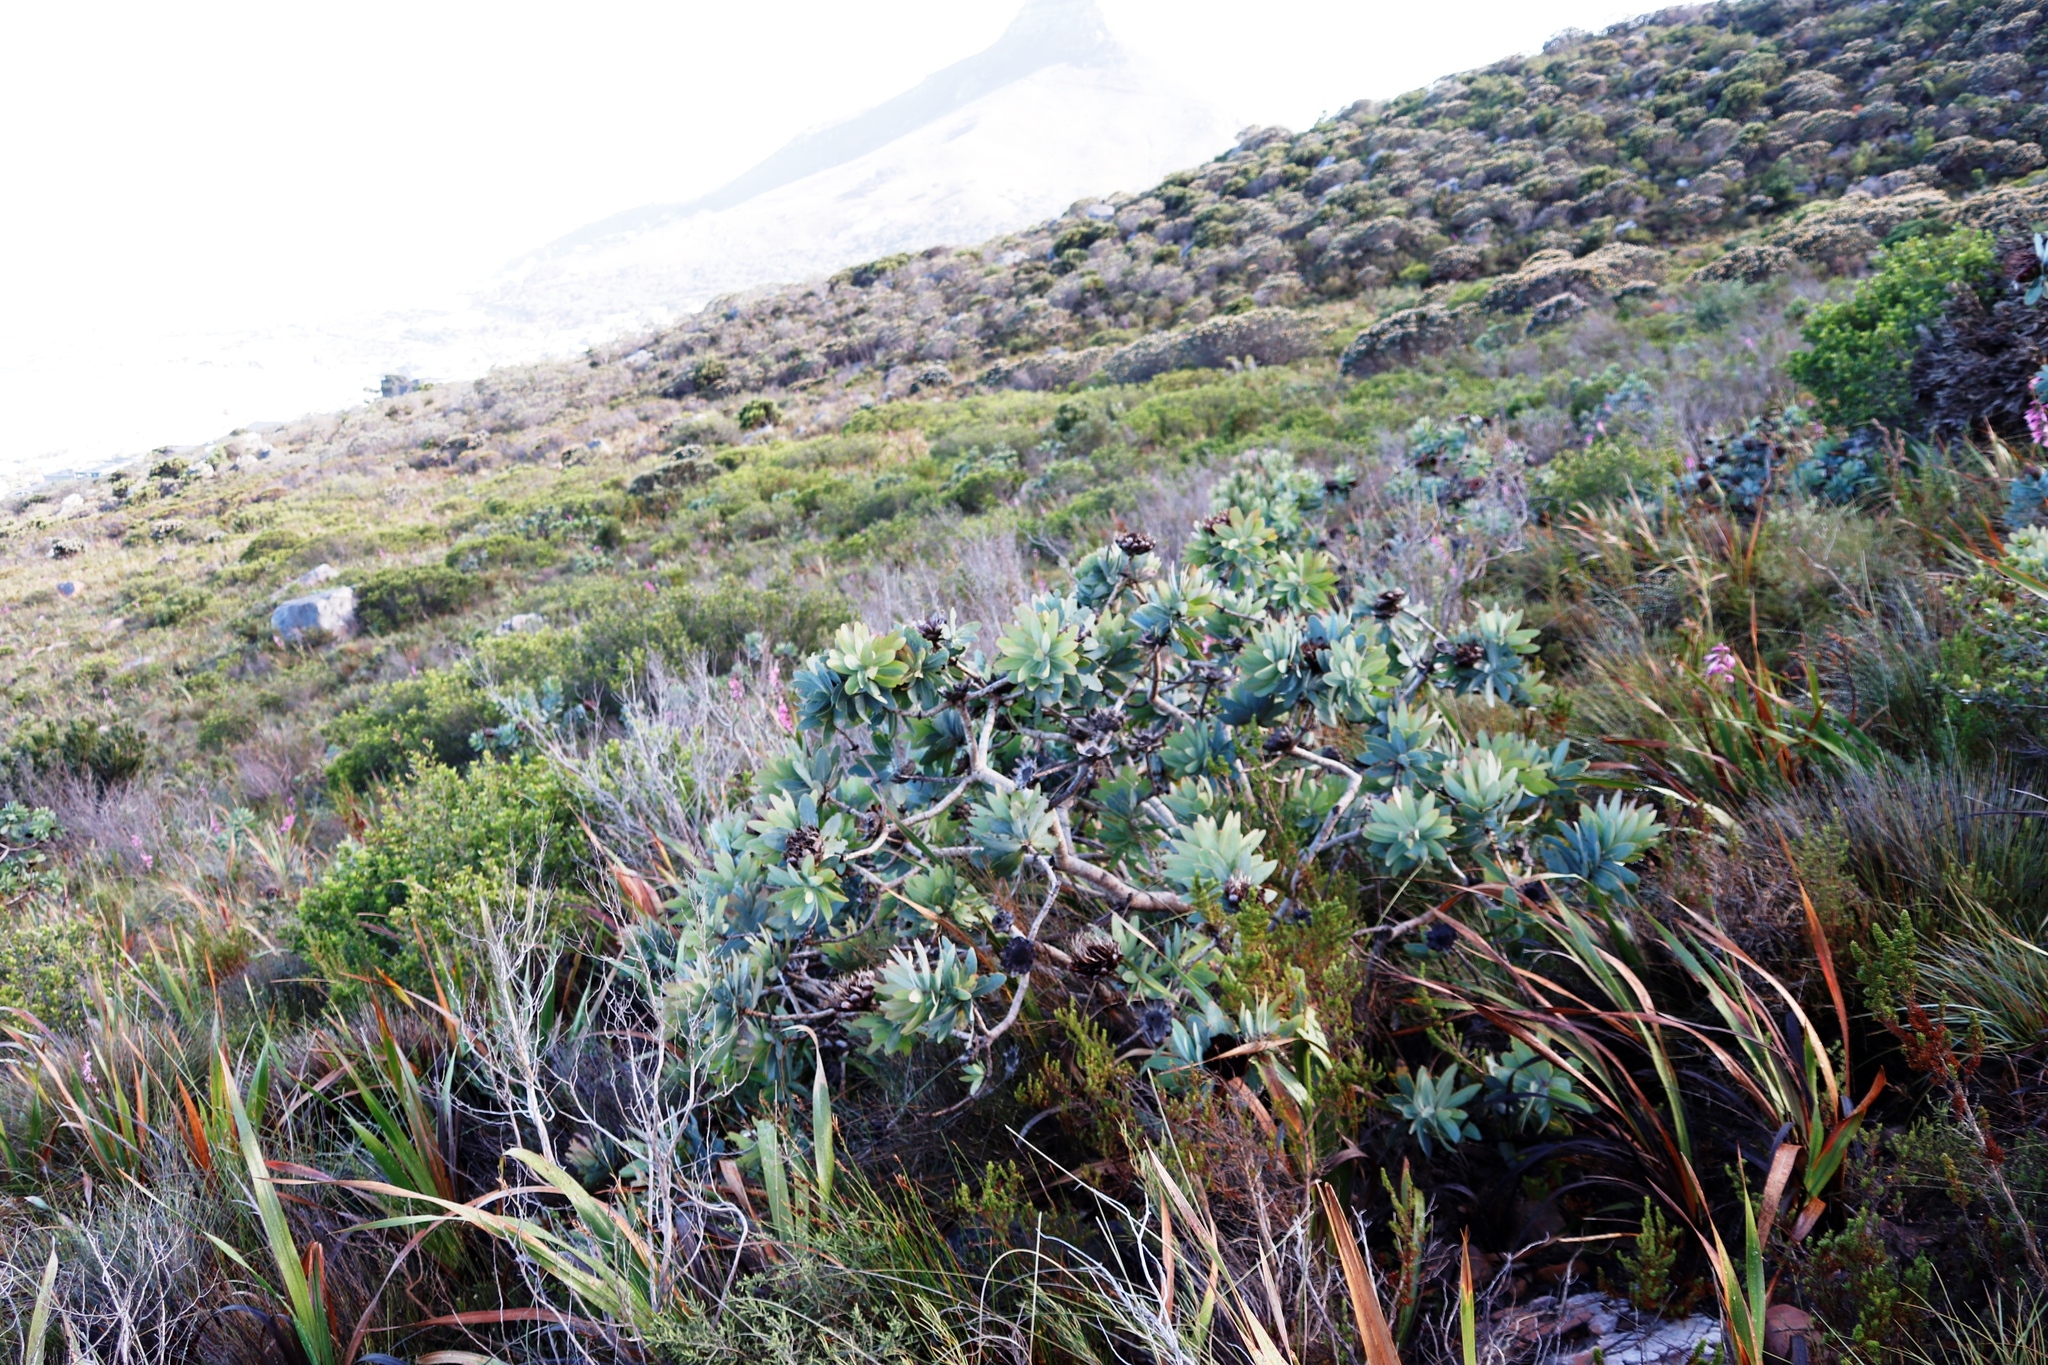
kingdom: Plantae
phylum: Tracheophyta
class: Magnoliopsida
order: Proteales
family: Proteaceae
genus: Protea
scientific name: Protea nitida
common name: Tree protea
